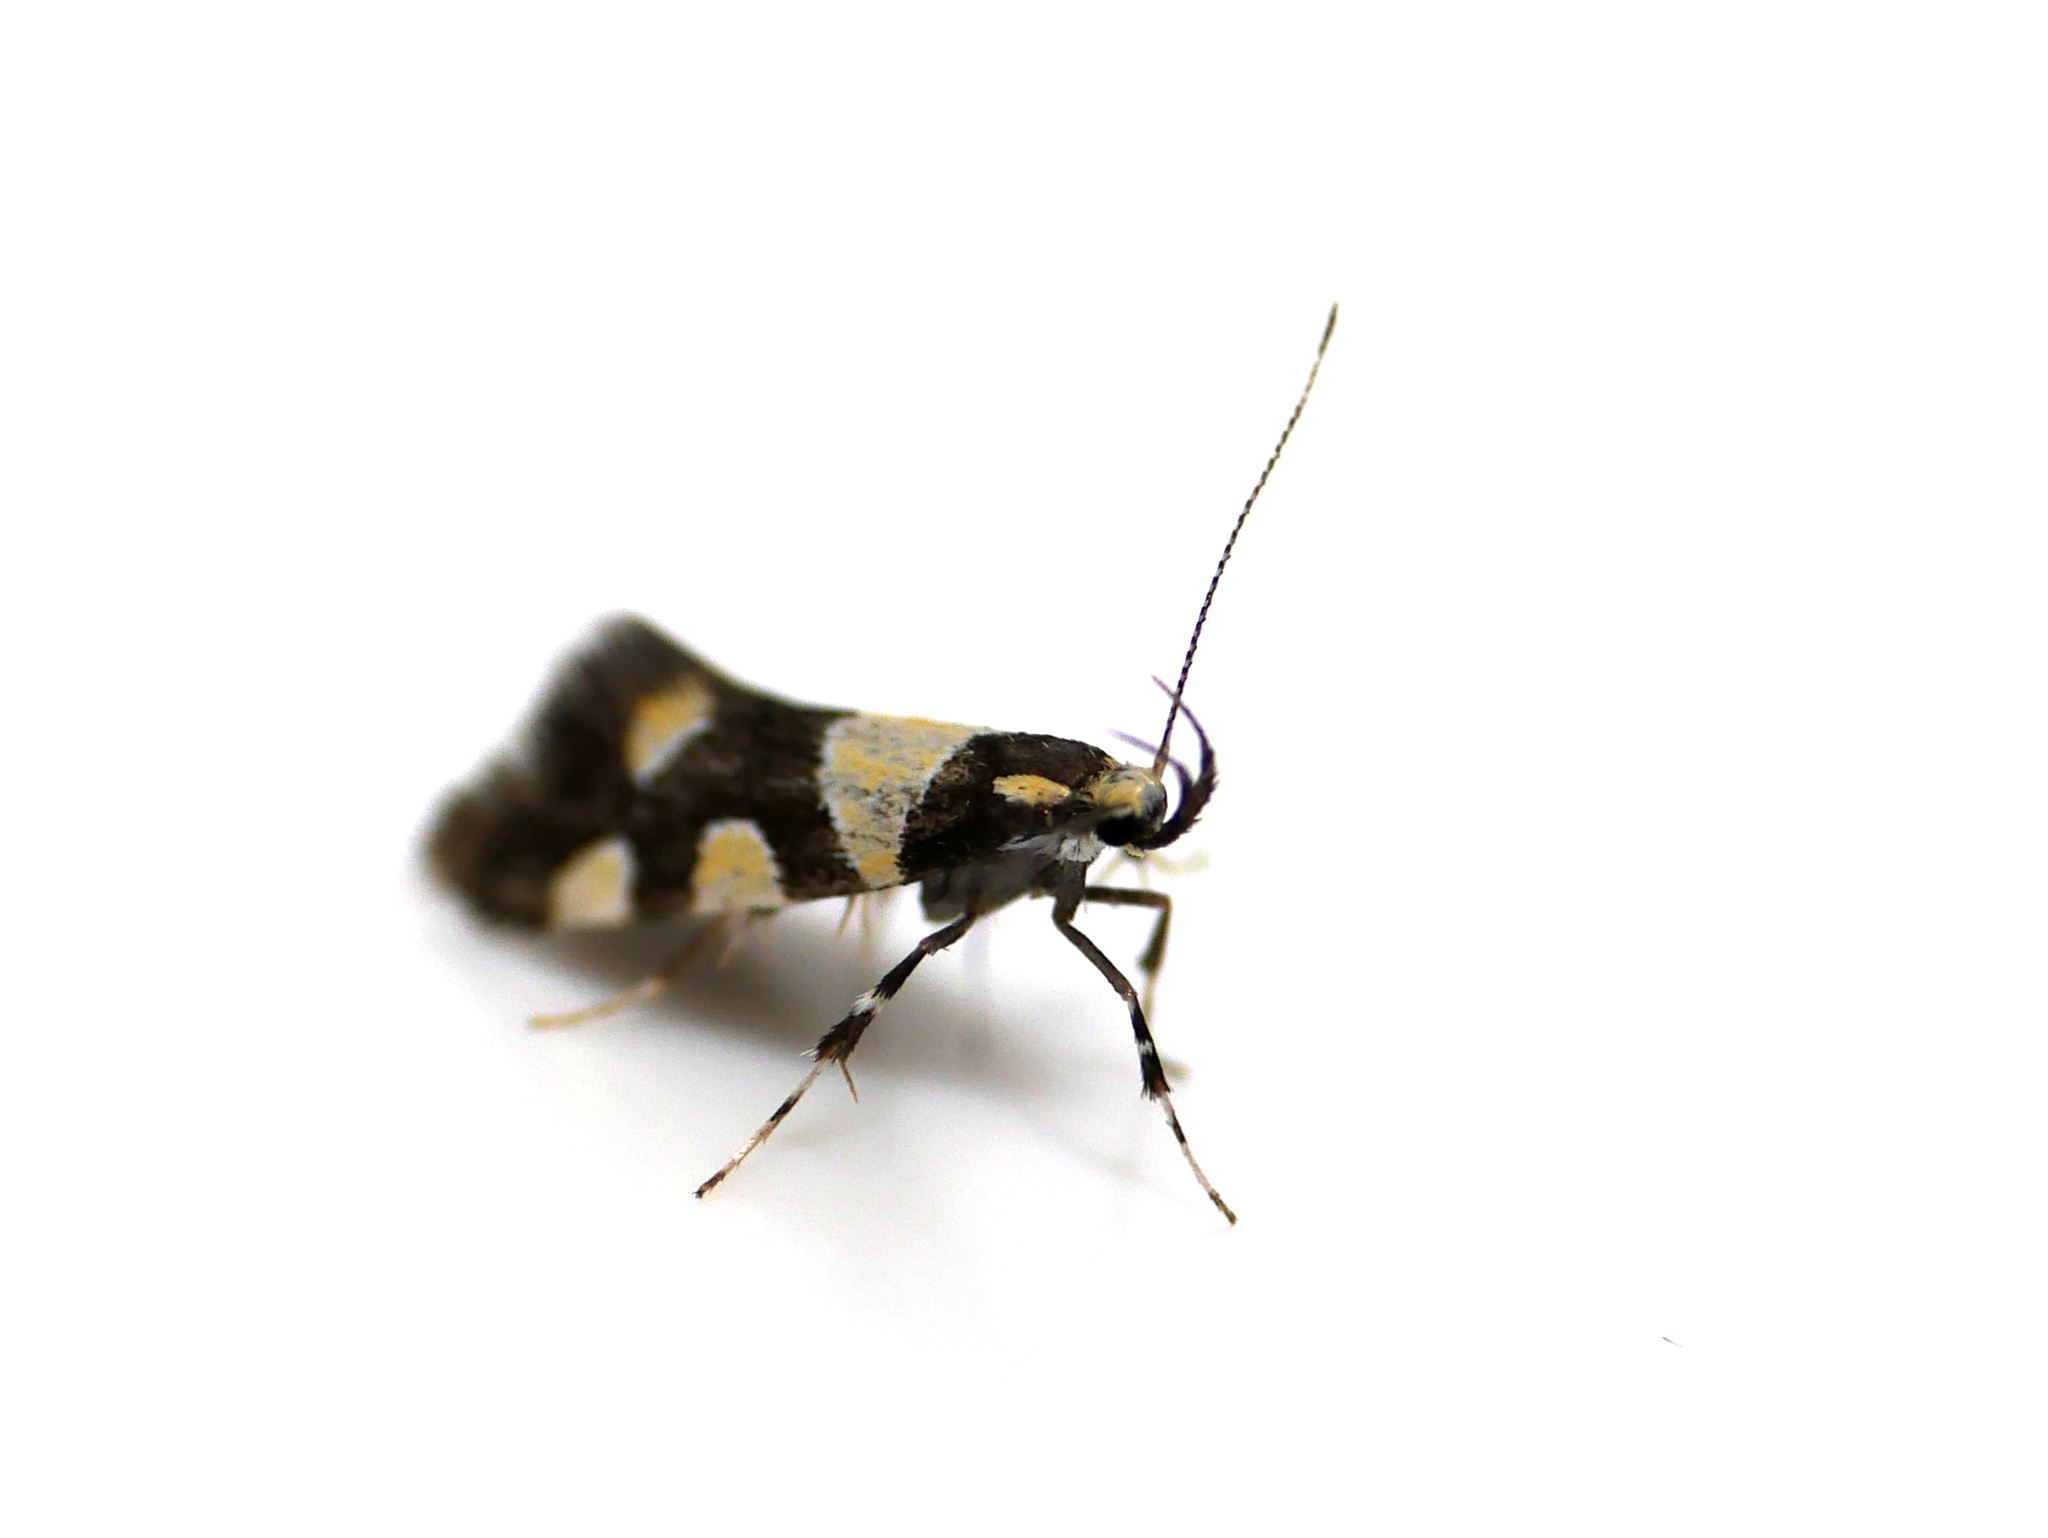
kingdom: Animalia
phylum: Arthropoda
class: Insecta
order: Lepidoptera
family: Oecophoridae
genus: Schiffermuelleria
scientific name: Schiffermuelleria amasiella
